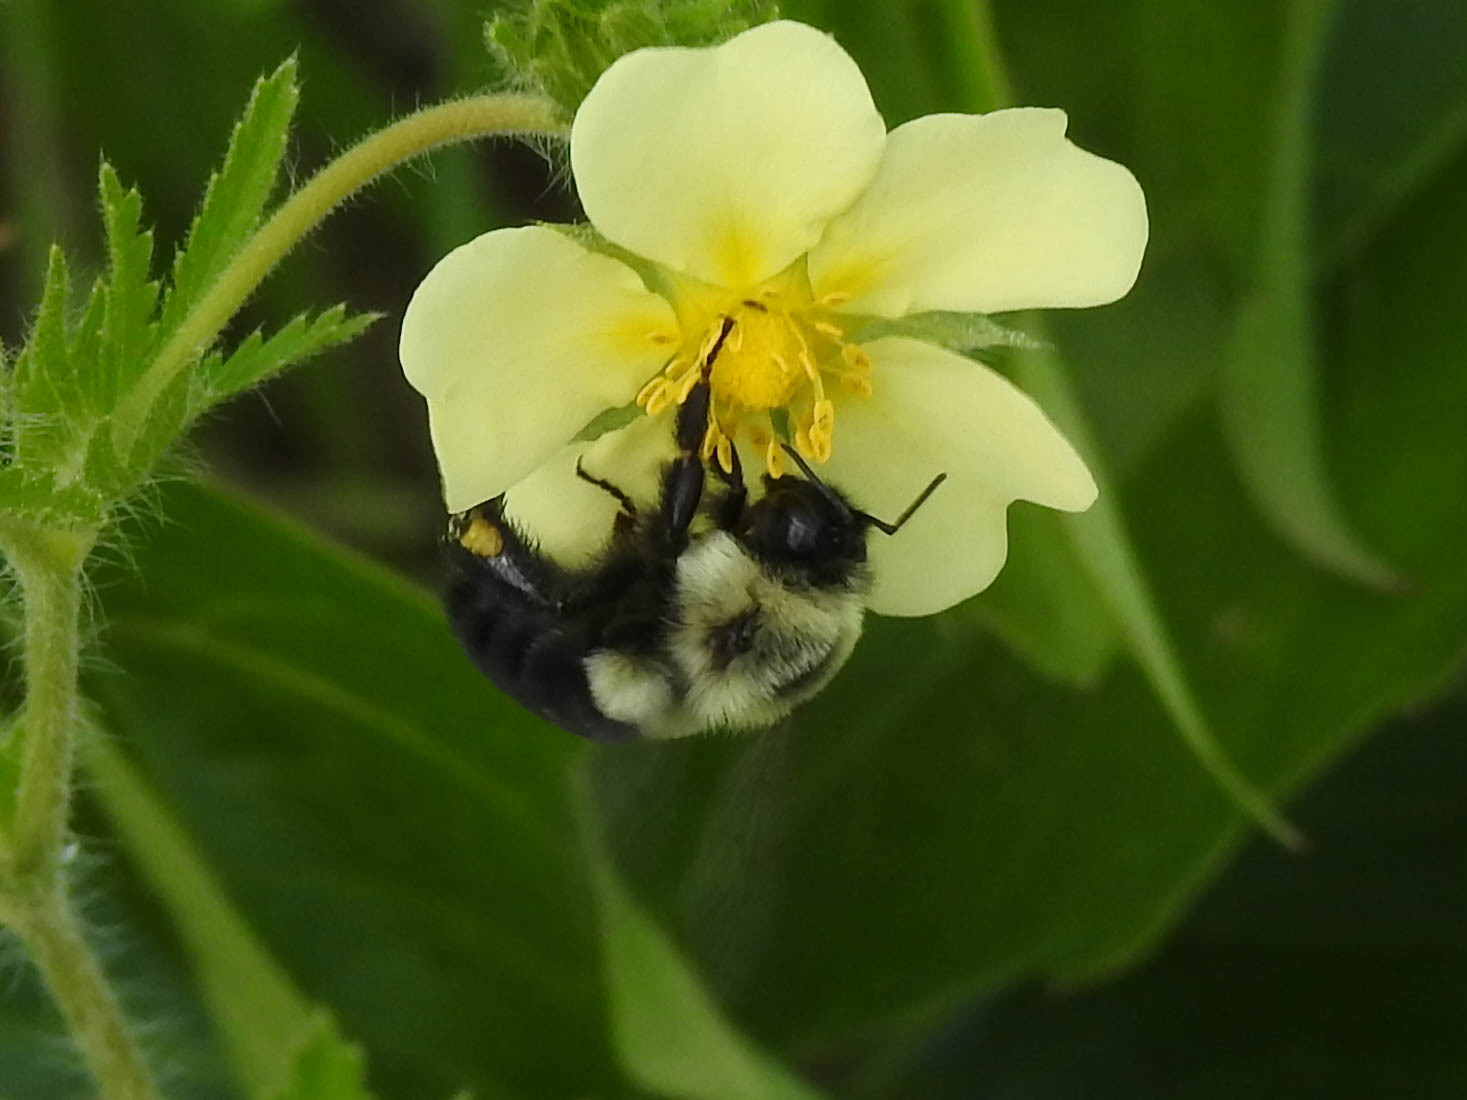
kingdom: Animalia
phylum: Arthropoda
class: Insecta
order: Hymenoptera
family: Apidae
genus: Bombus
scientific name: Bombus impatiens
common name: Common eastern bumble bee
